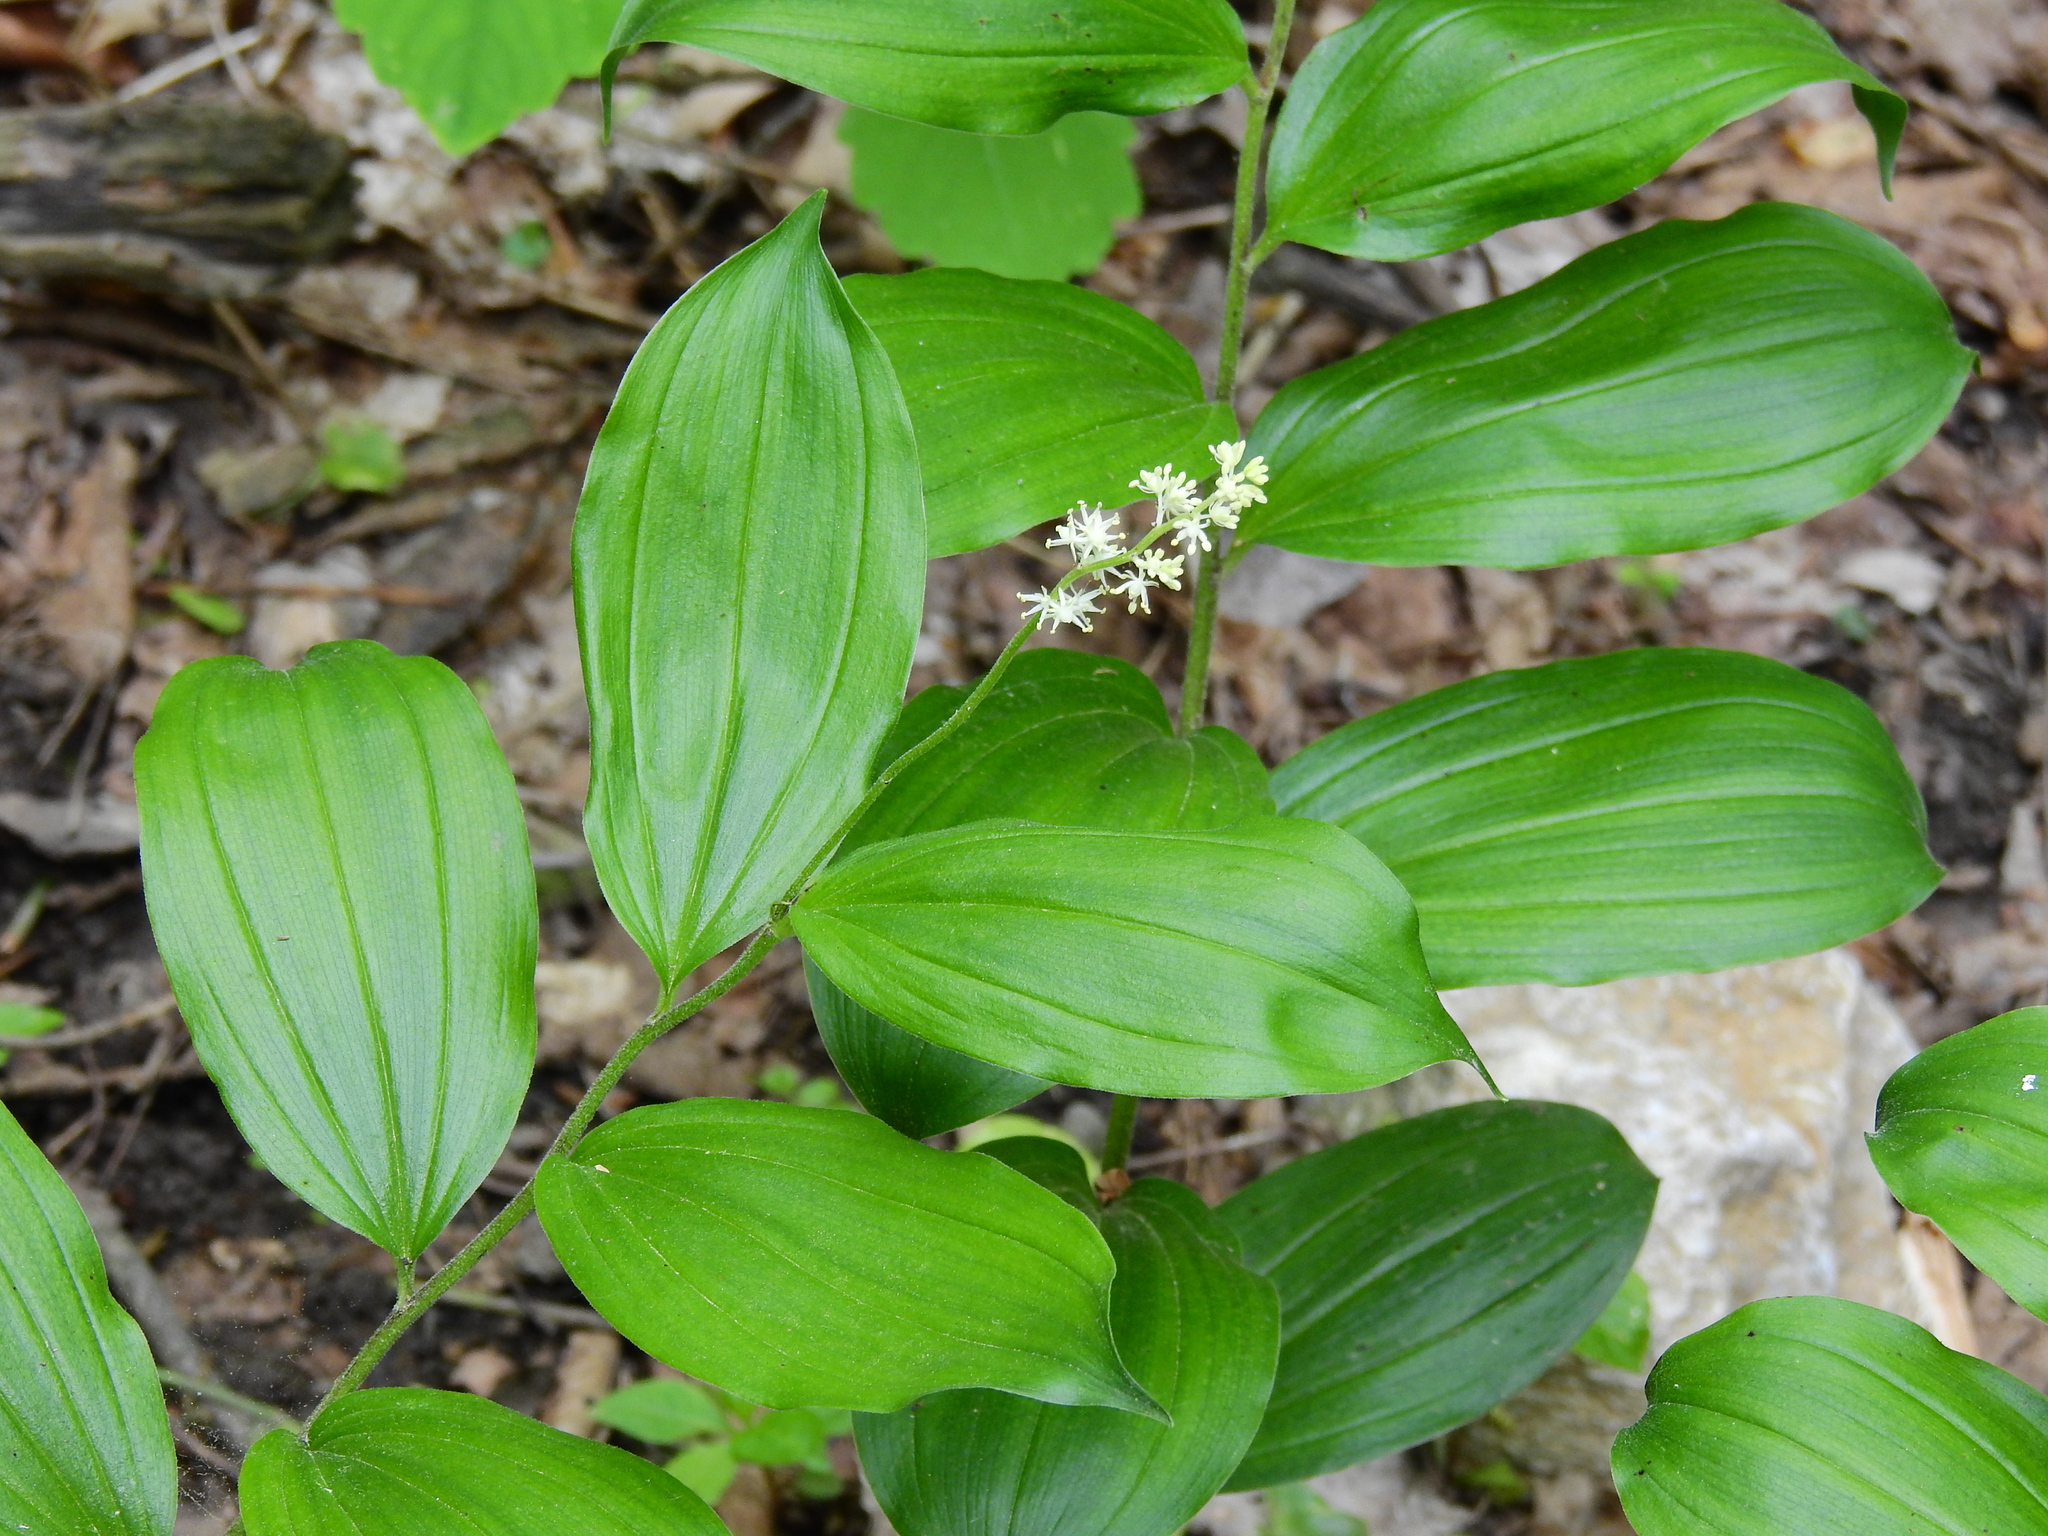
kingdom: Plantae
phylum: Tracheophyta
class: Liliopsida
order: Asparagales
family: Asparagaceae
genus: Maianthemum
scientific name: Maianthemum racemosum
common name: False spikenard
